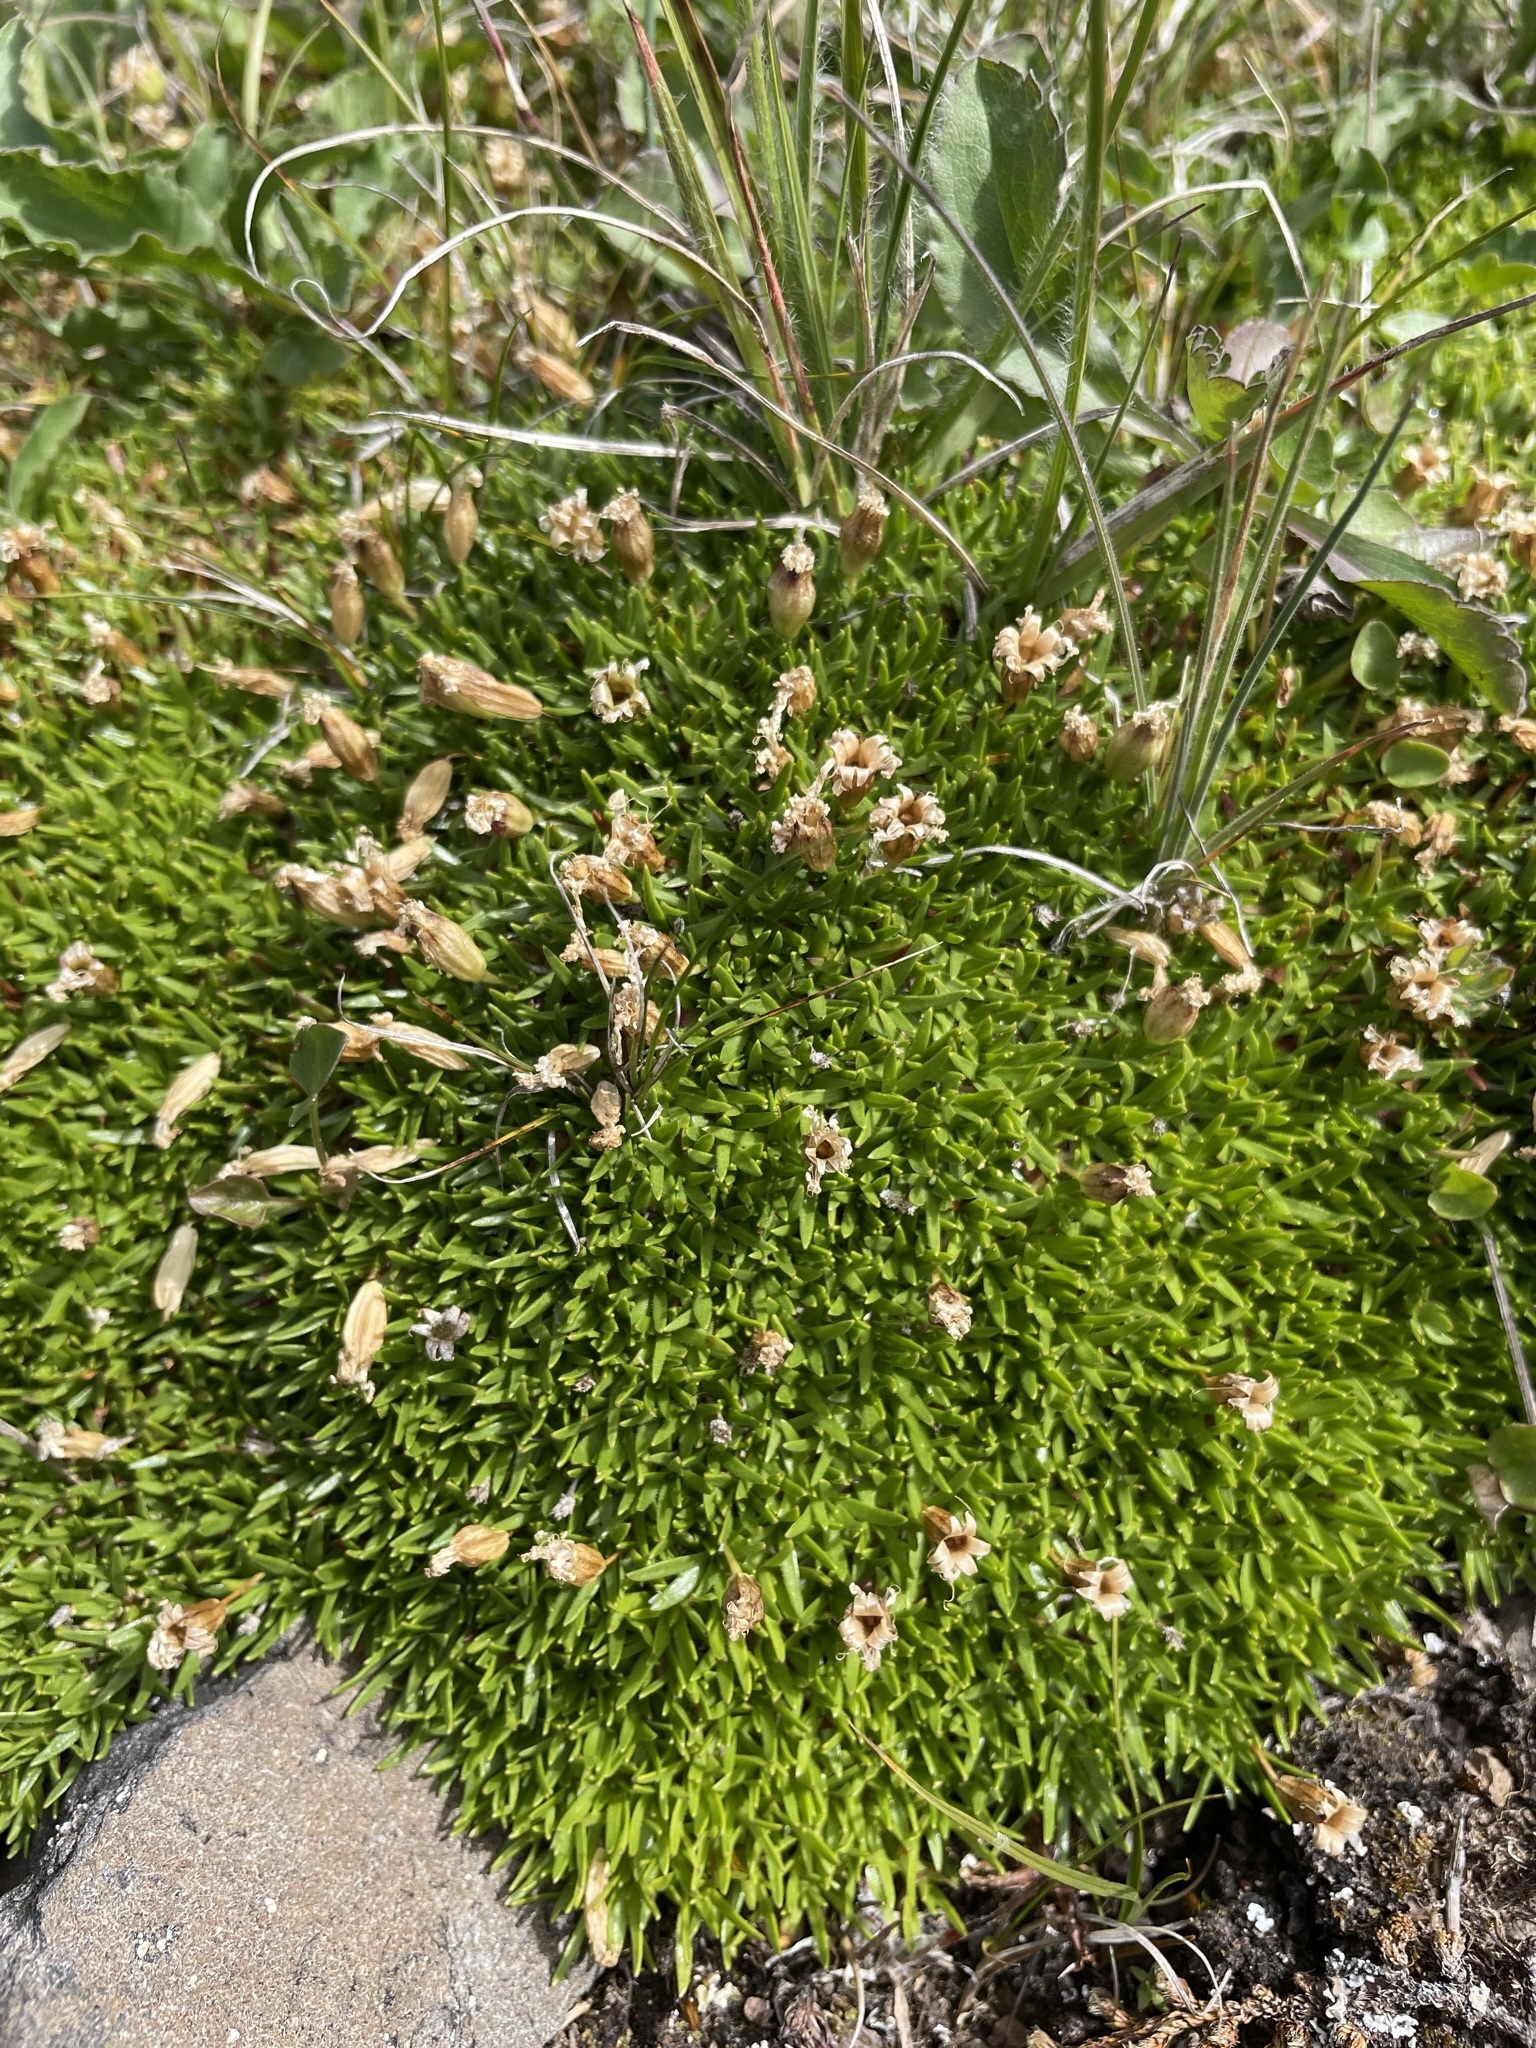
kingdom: Plantae
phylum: Tracheophyta
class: Magnoliopsida
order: Caryophyllales
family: Caryophyllaceae
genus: Silene
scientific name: Silene acaulis
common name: Moss campion
